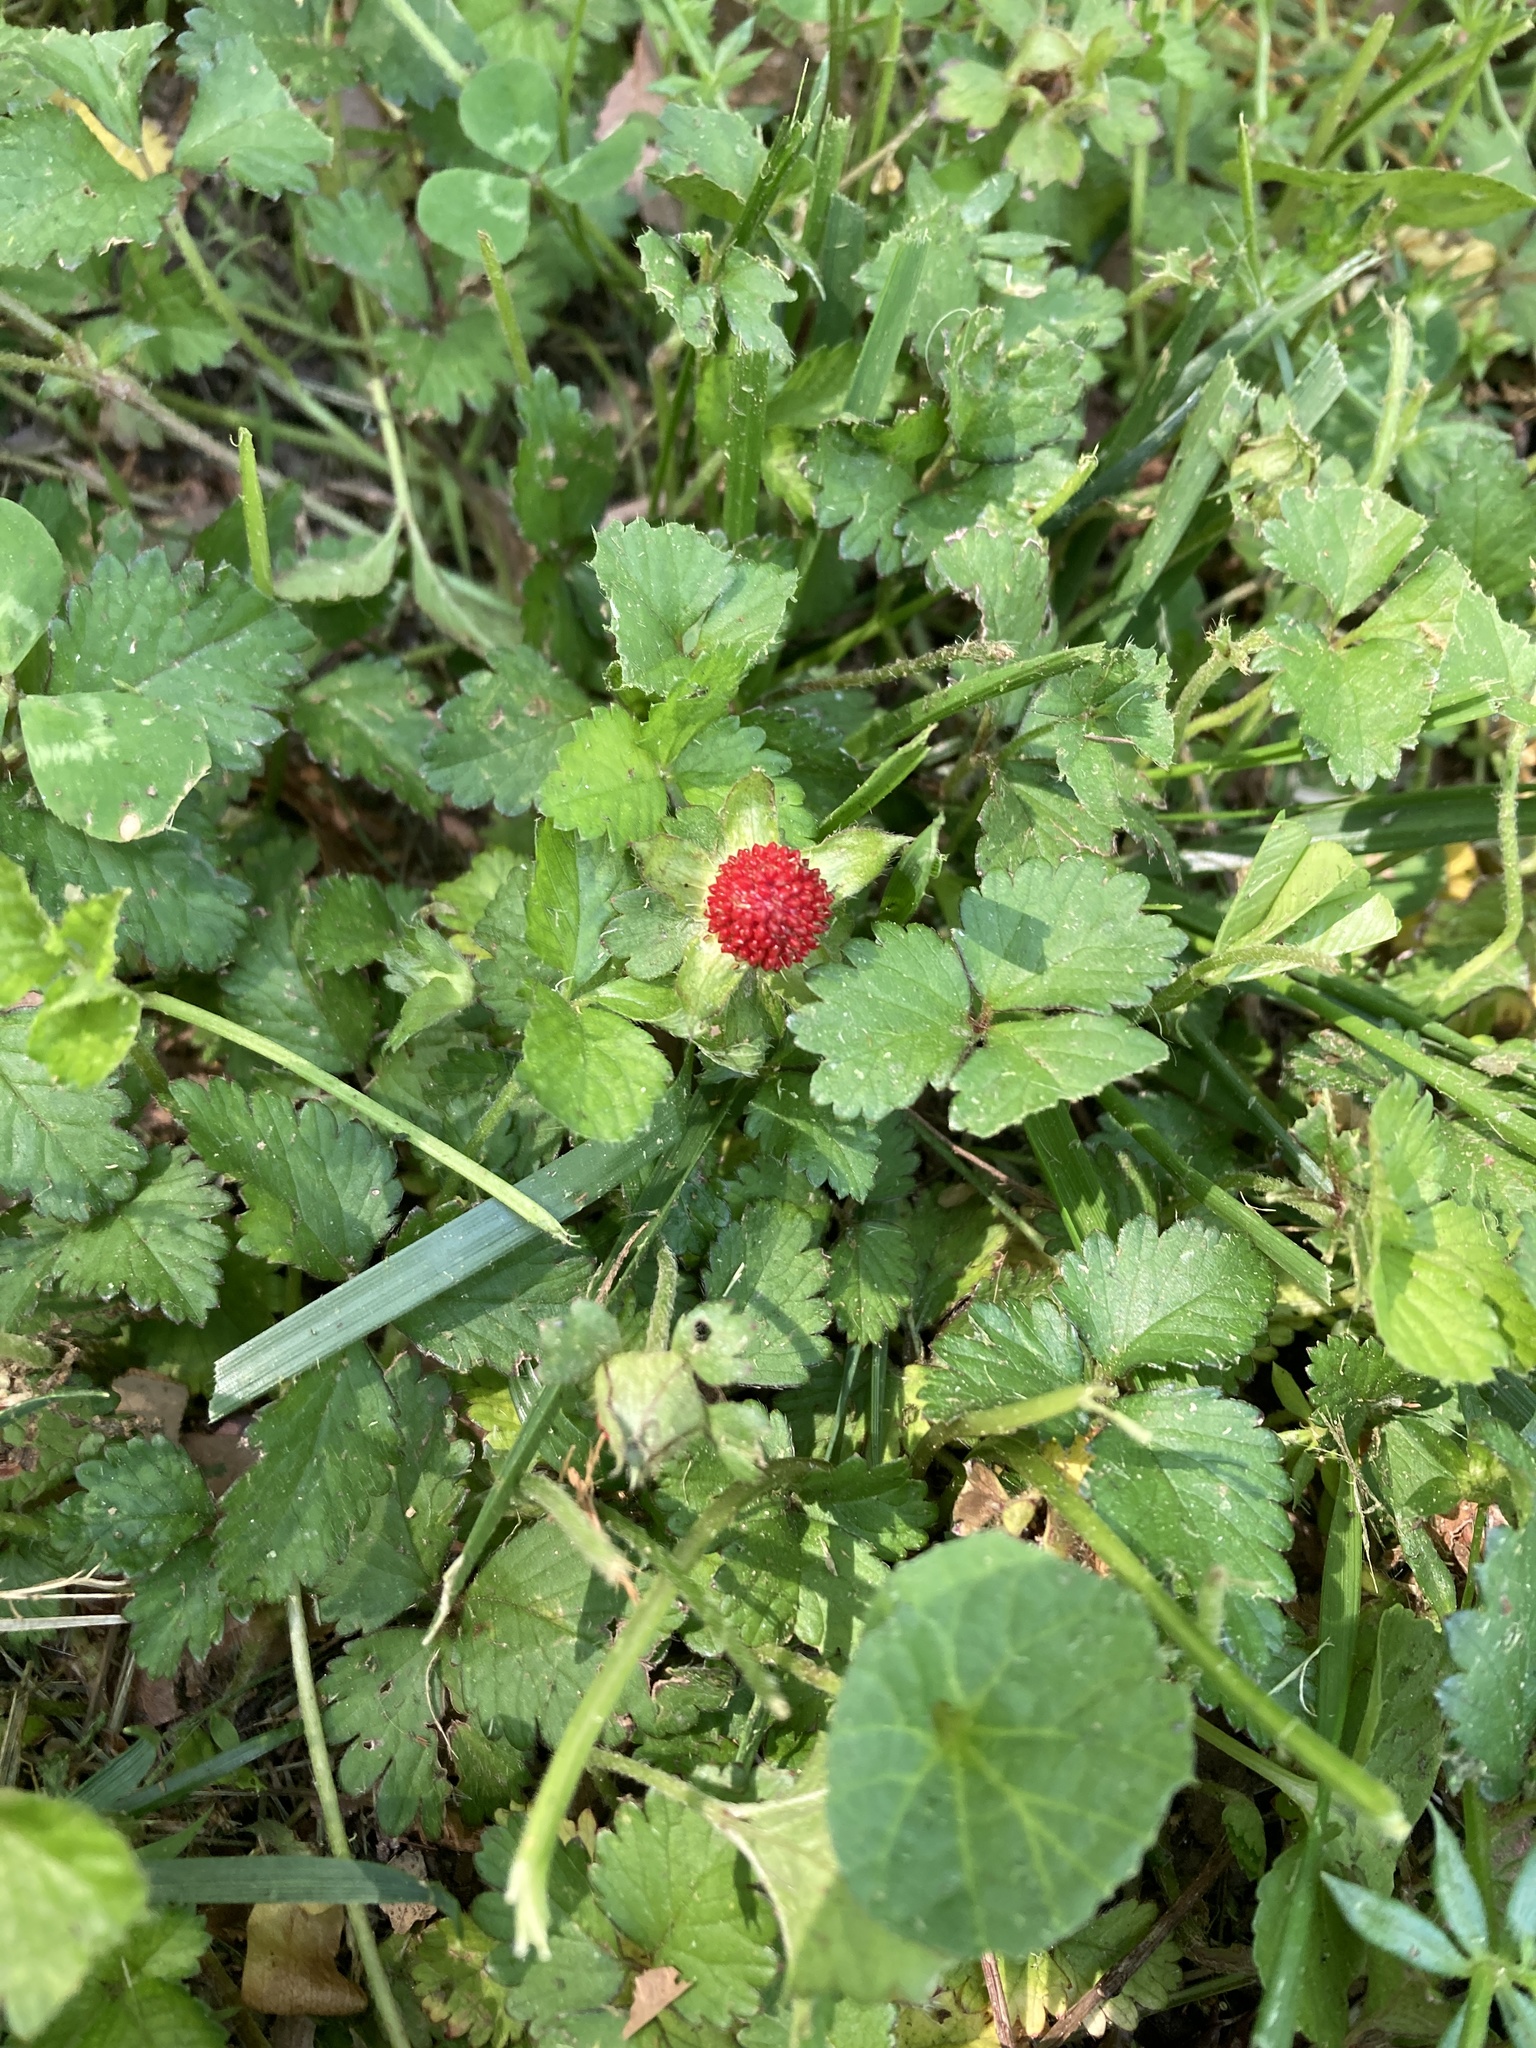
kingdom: Plantae
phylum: Tracheophyta
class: Magnoliopsida
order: Rosales
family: Rosaceae
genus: Potentilla
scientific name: Potentilla indica
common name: Yellow-flowered strawberry
